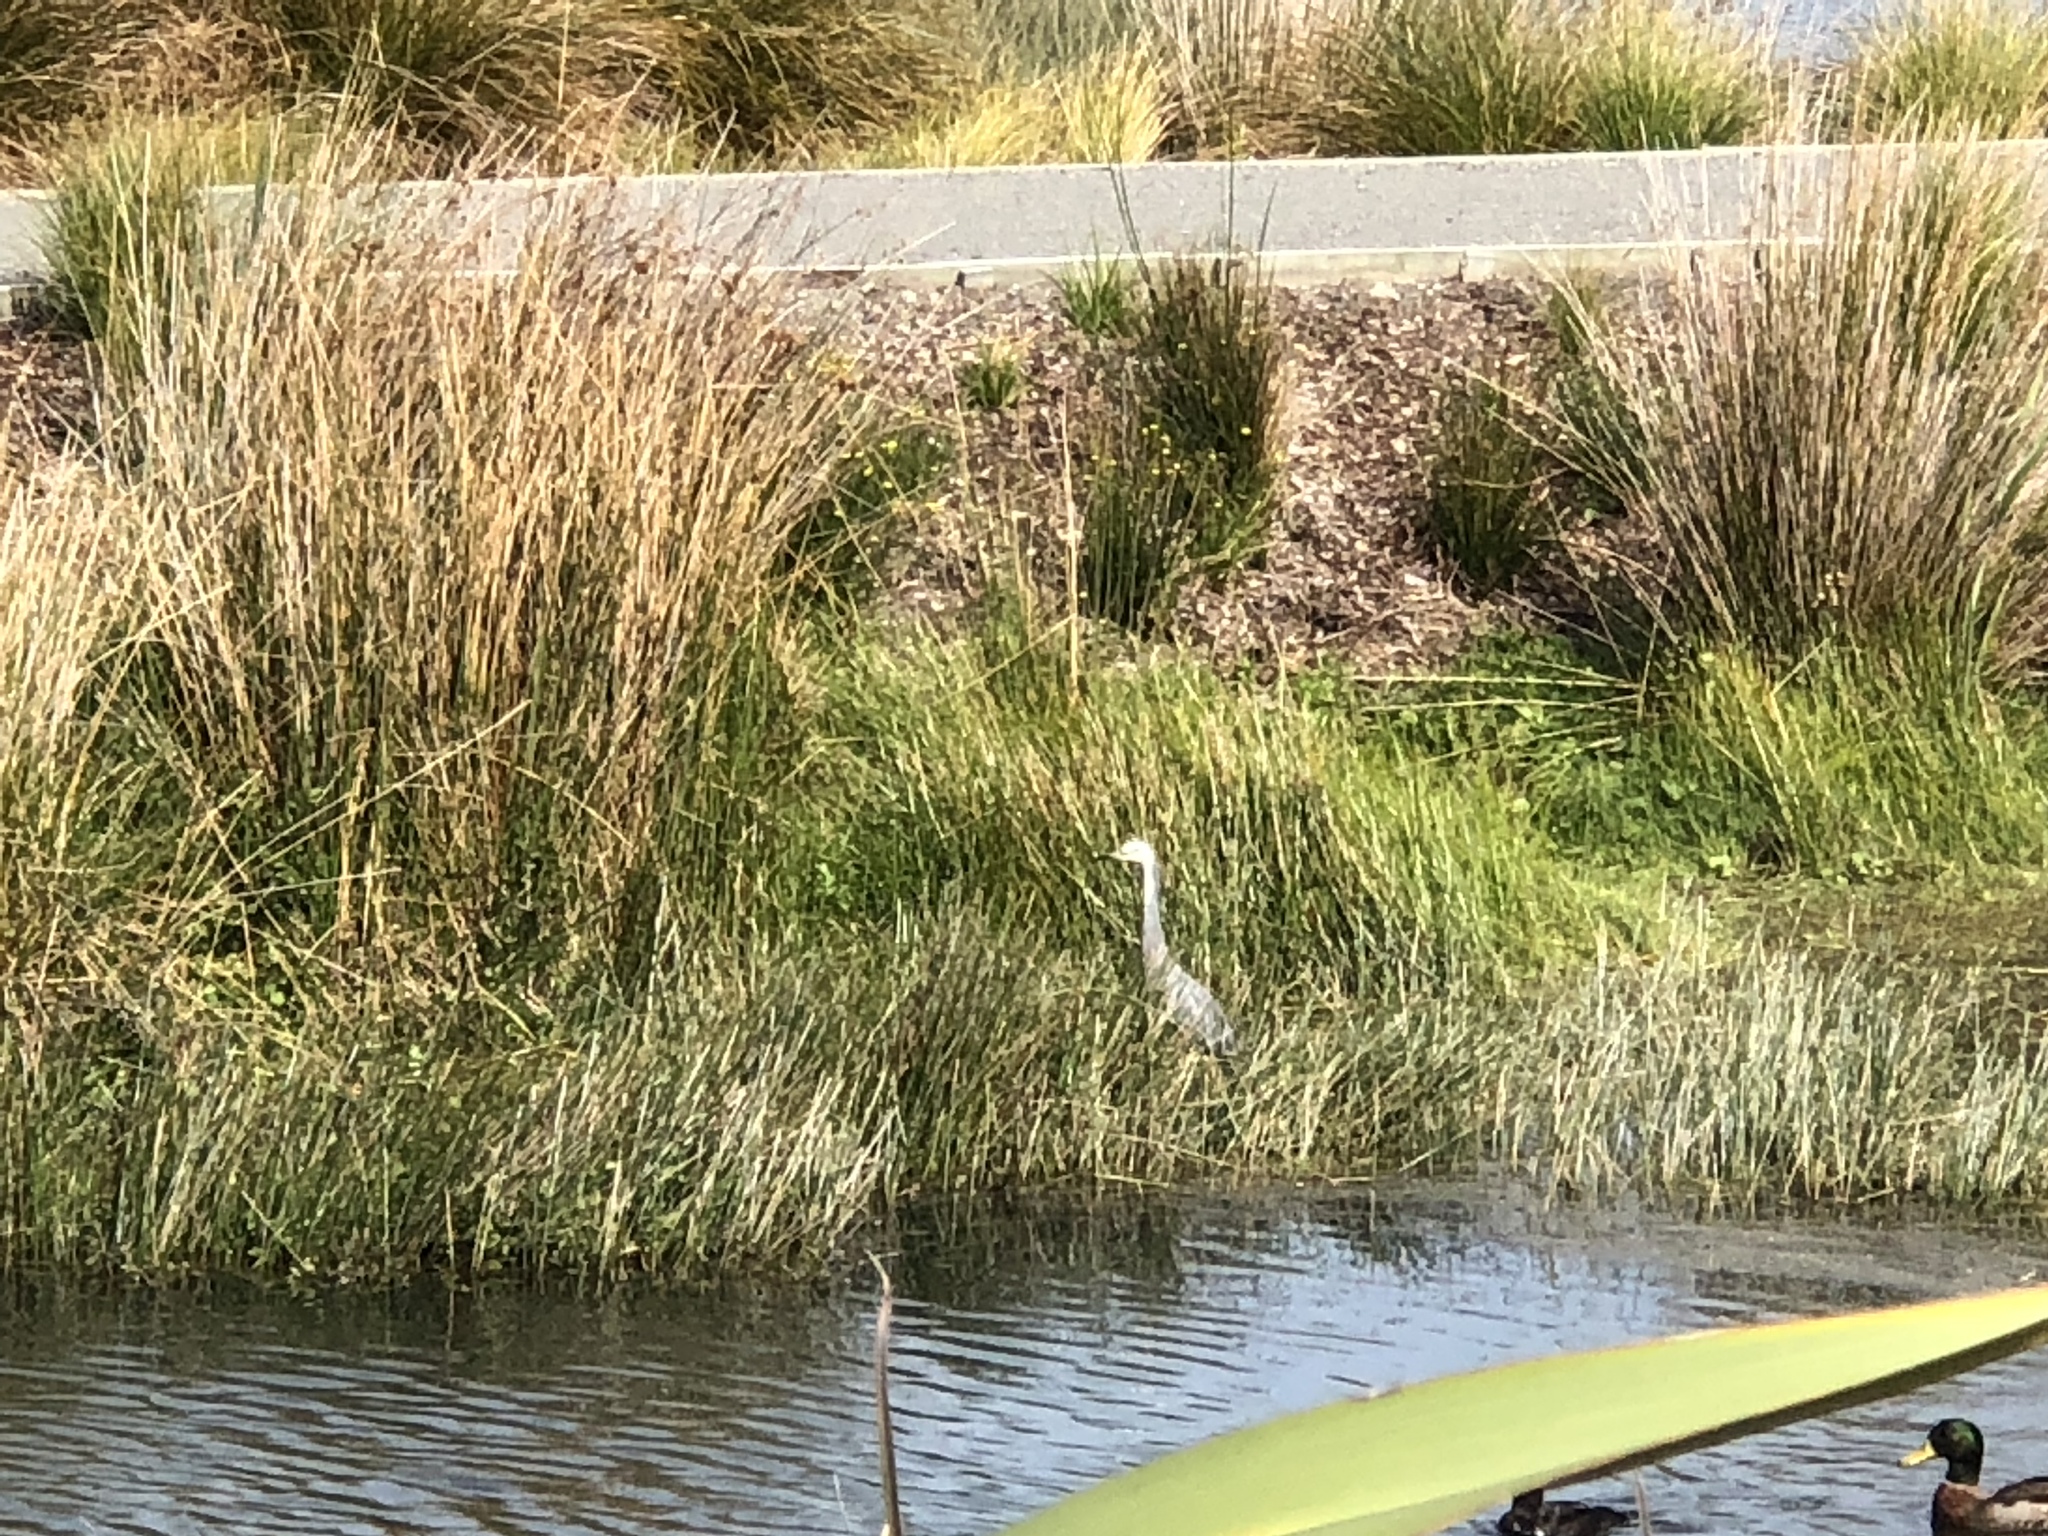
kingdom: Animalia
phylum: Chordata
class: Aves
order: Pelecaniformes
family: Ardeidae
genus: Egretta
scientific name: Egretta novaehollandiae
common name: White-faced heron
